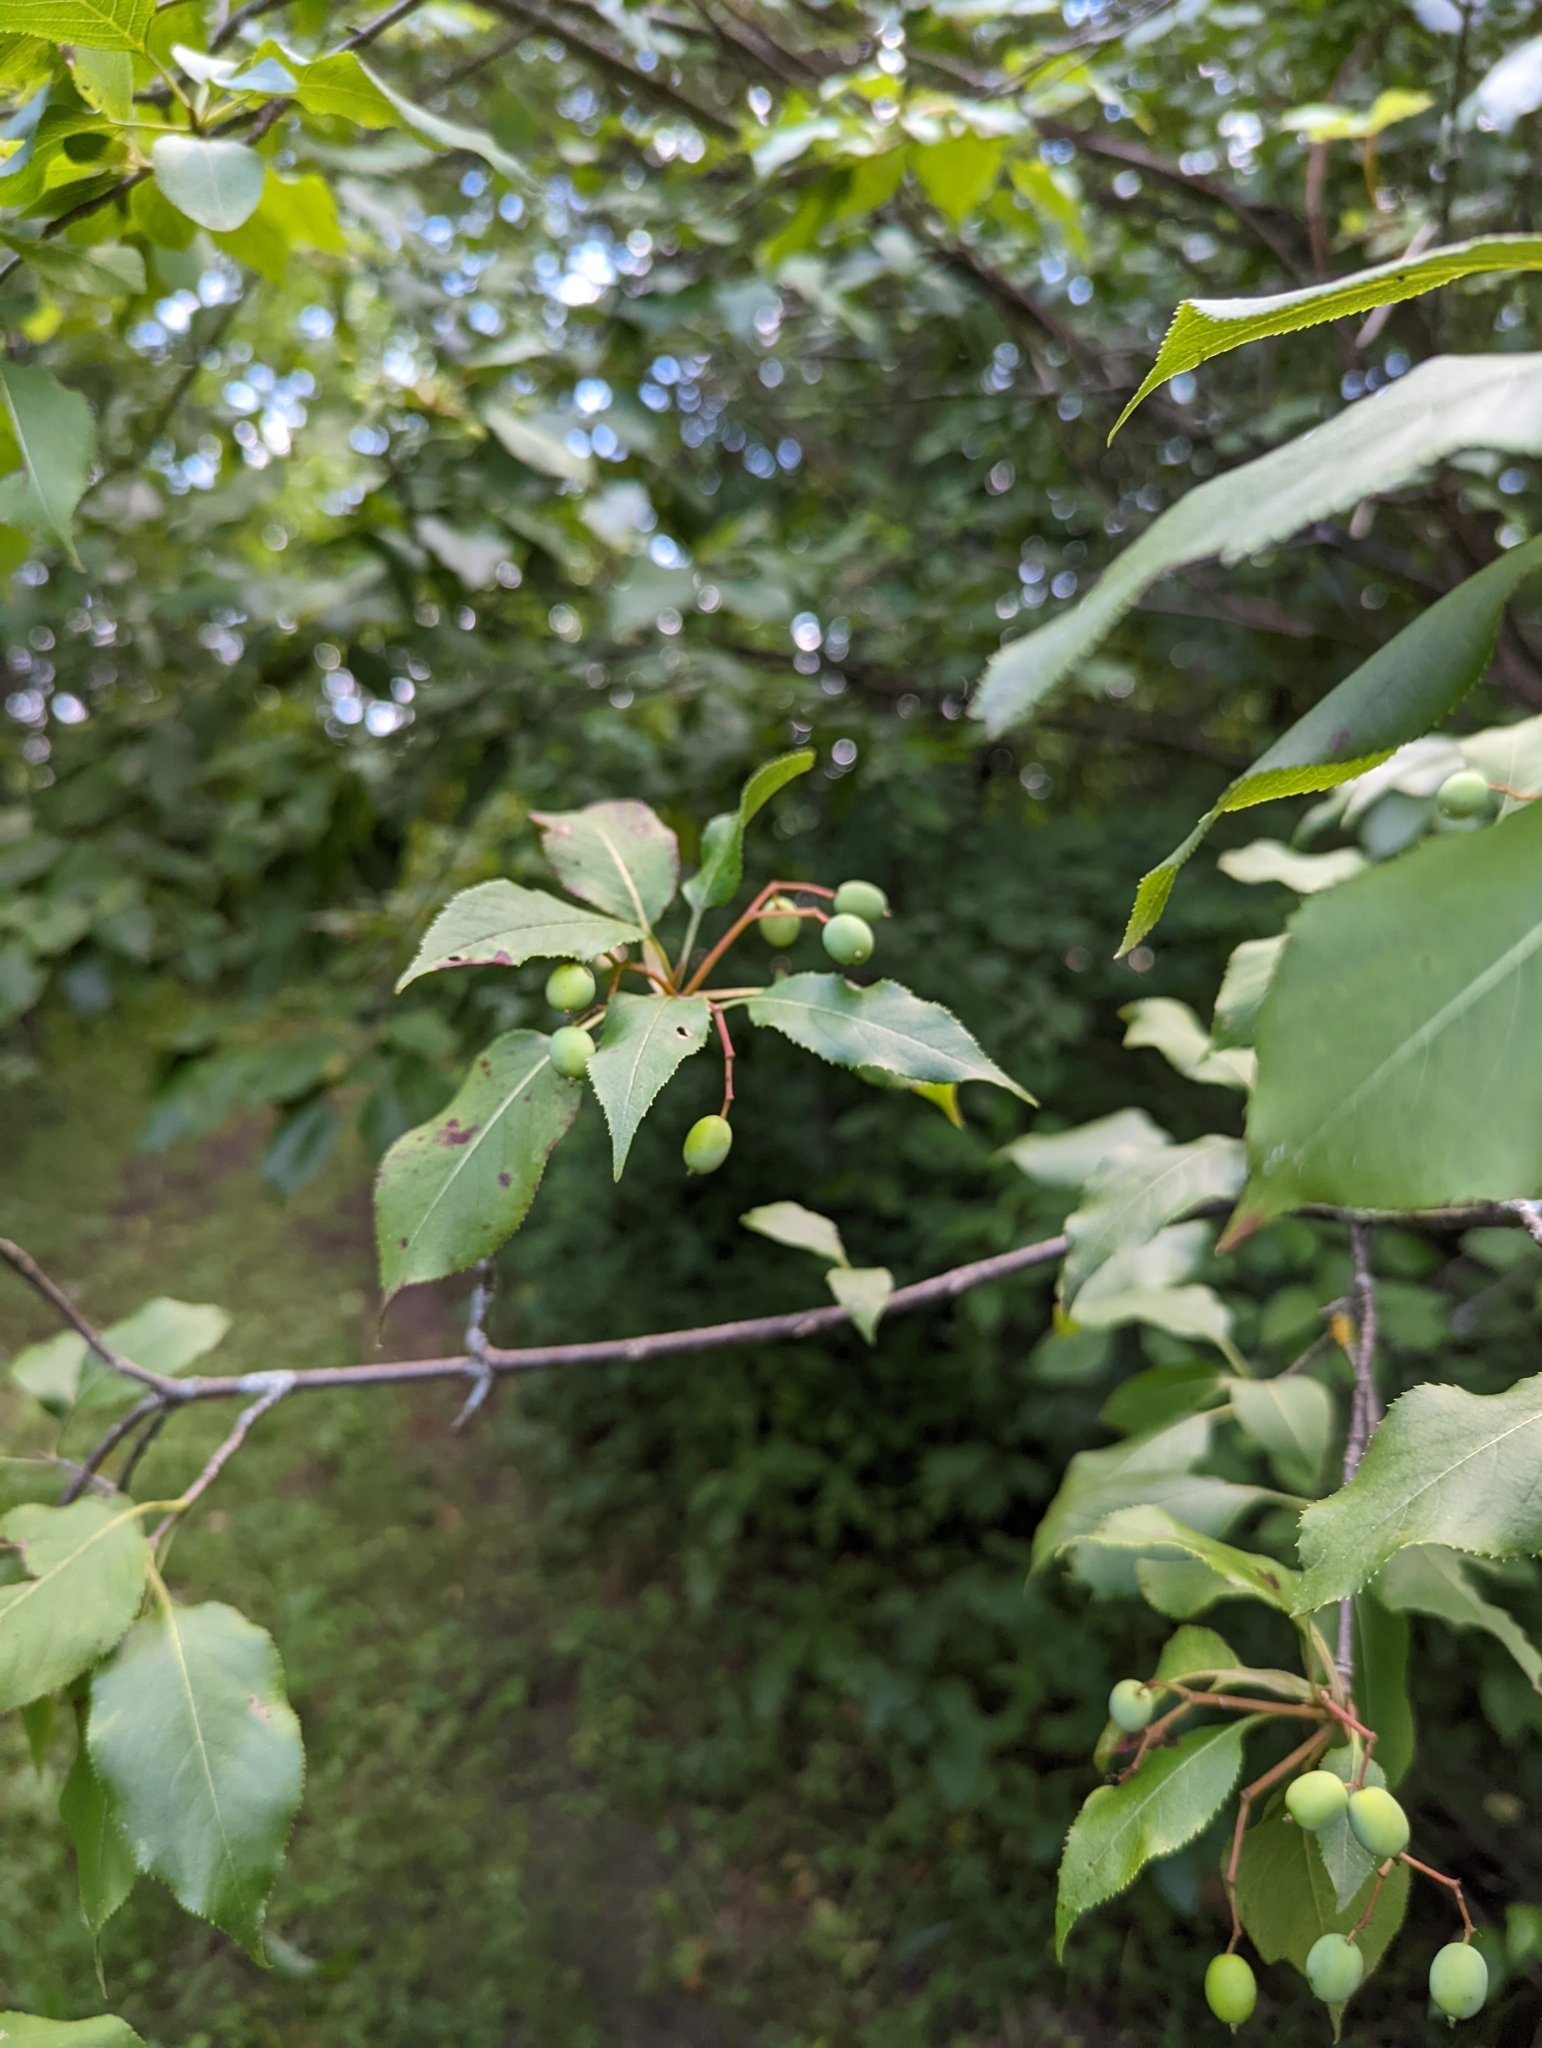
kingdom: Plantae
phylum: Tracheophyta
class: Magnoliopsida
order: Dipsacales
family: Viburnaceae
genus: Viburnum
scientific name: Viburnum lentago
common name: Black haw
